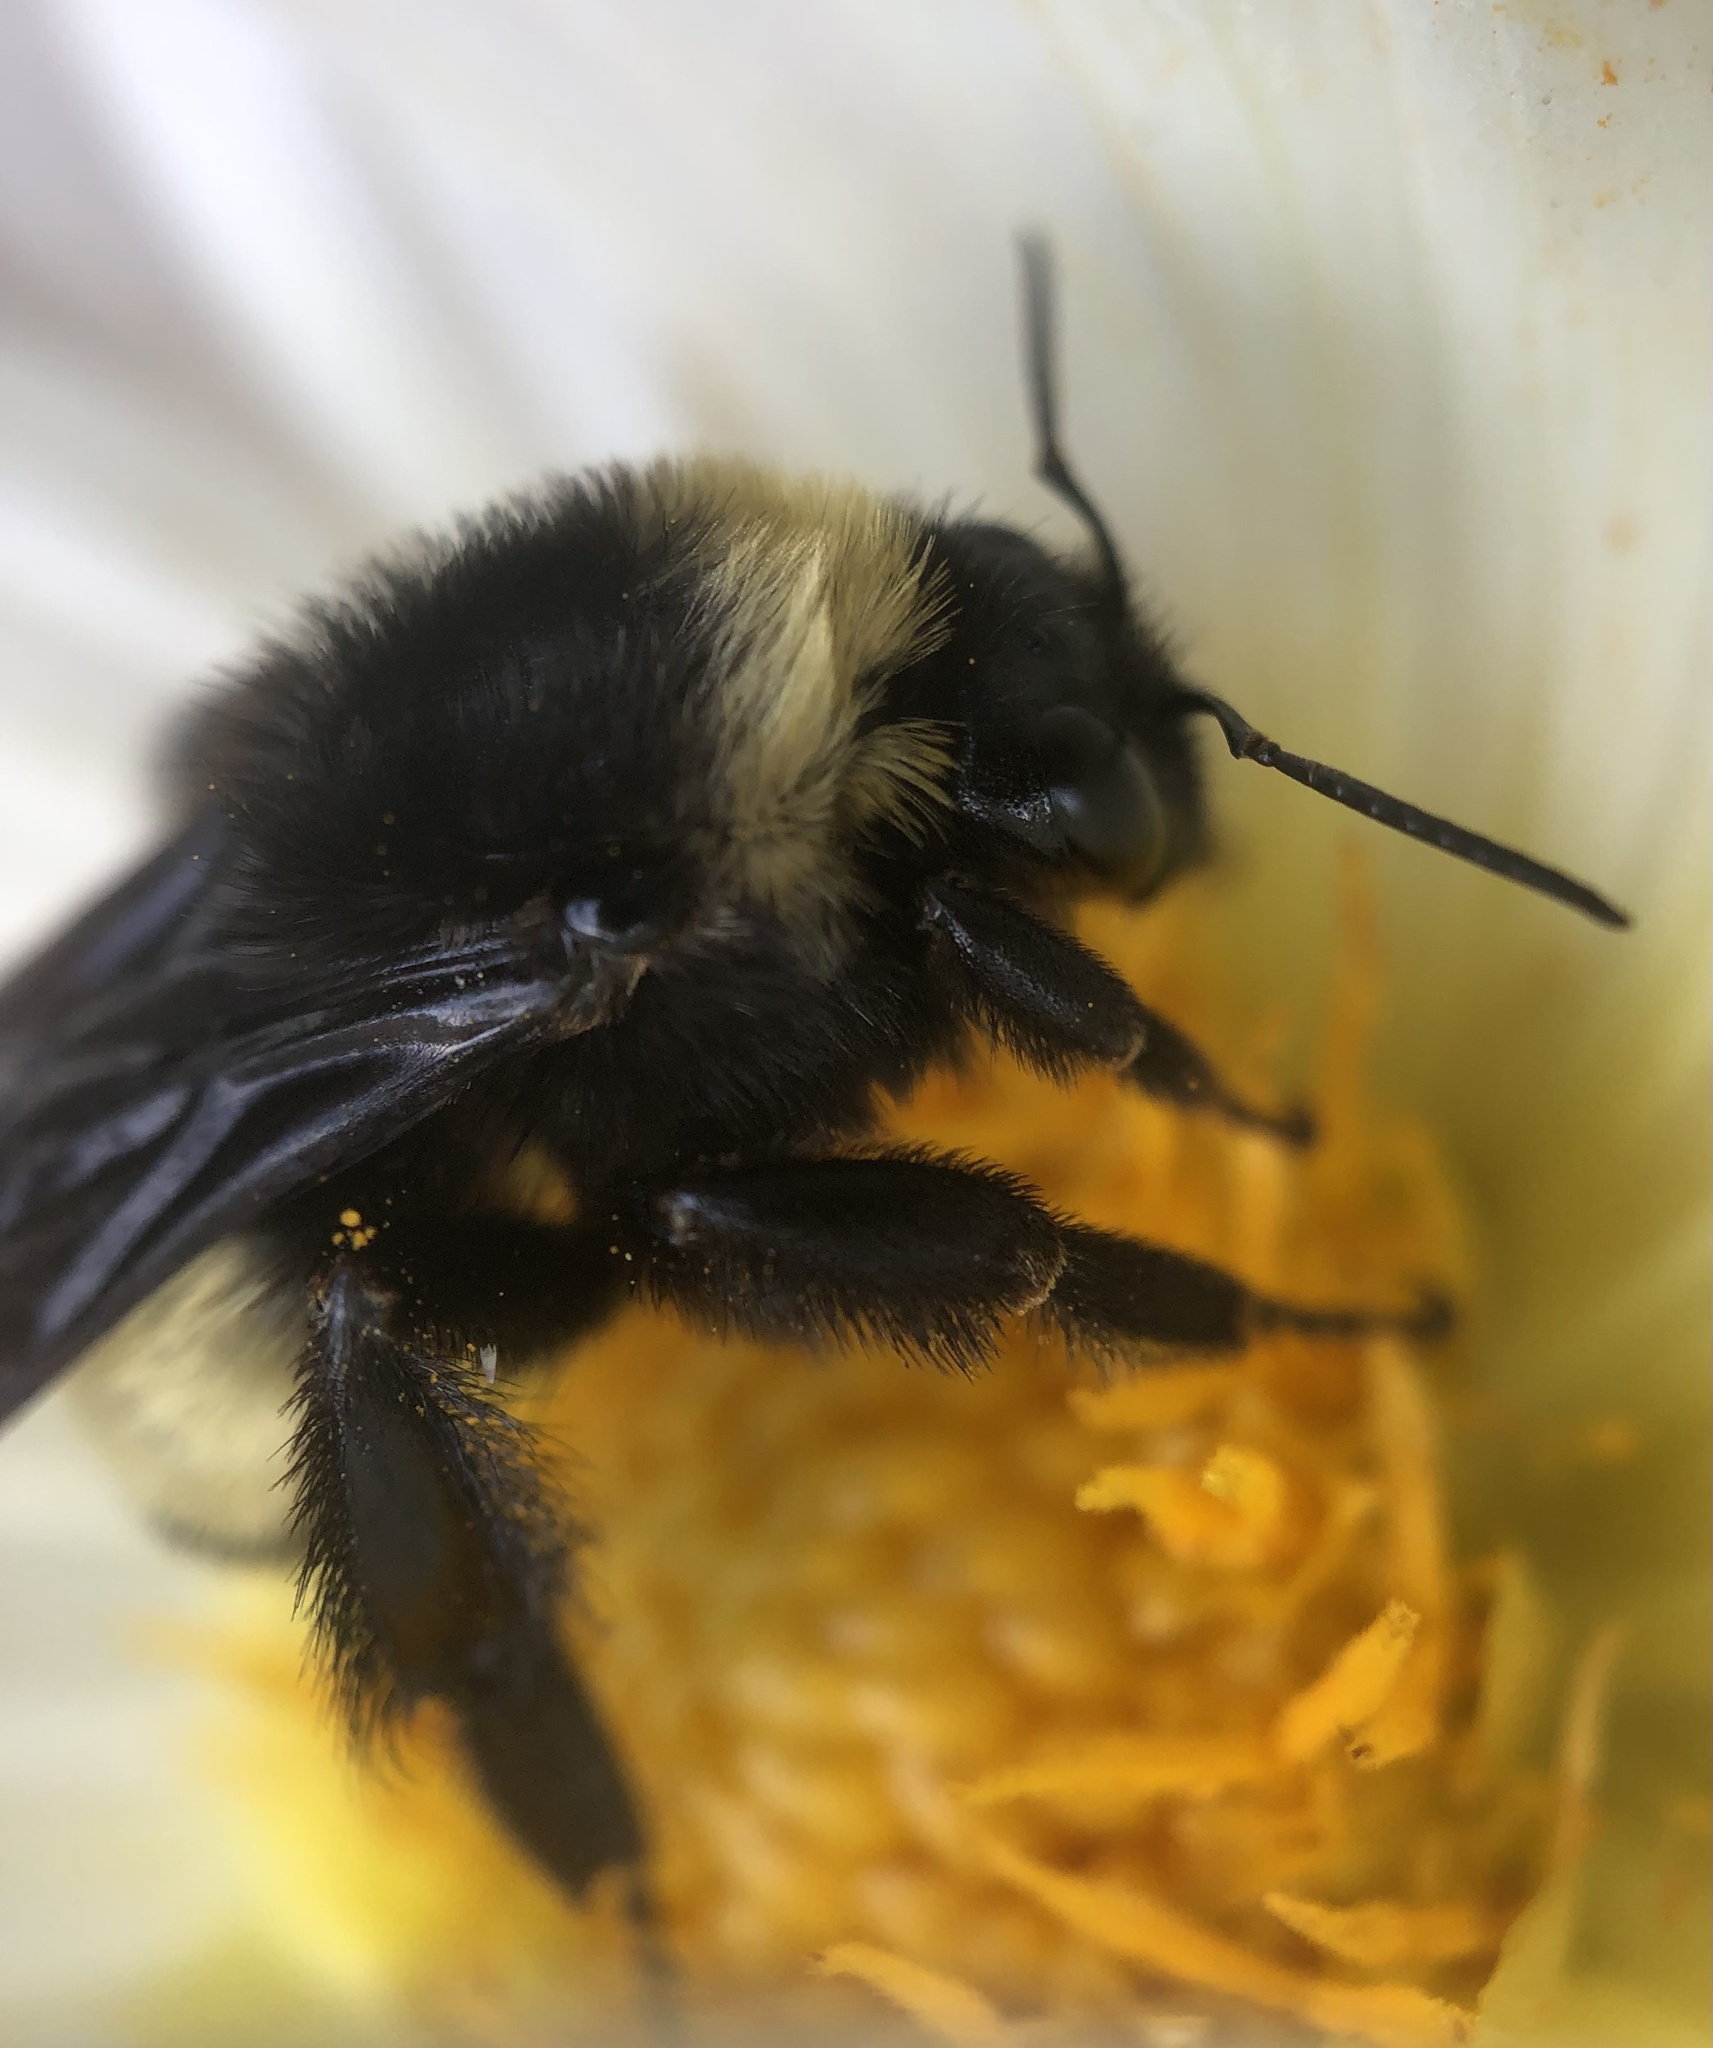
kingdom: Animalia
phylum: Arthropoda
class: Insecta
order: Hymenoptera
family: Apidae
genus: Bombus
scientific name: Bombus pensylvanicus
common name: Bumble bee
